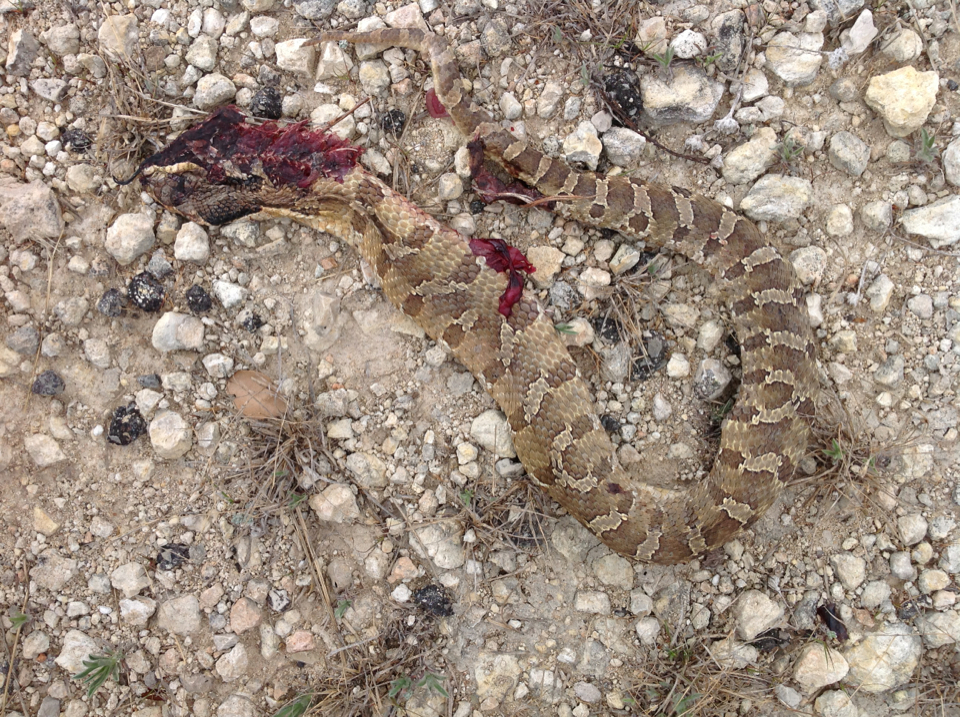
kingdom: Animalia
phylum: Chordata
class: Squamata
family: Colubridae
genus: Heterodon
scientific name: Heterodon platirhinos
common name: Eastern hognose snake
